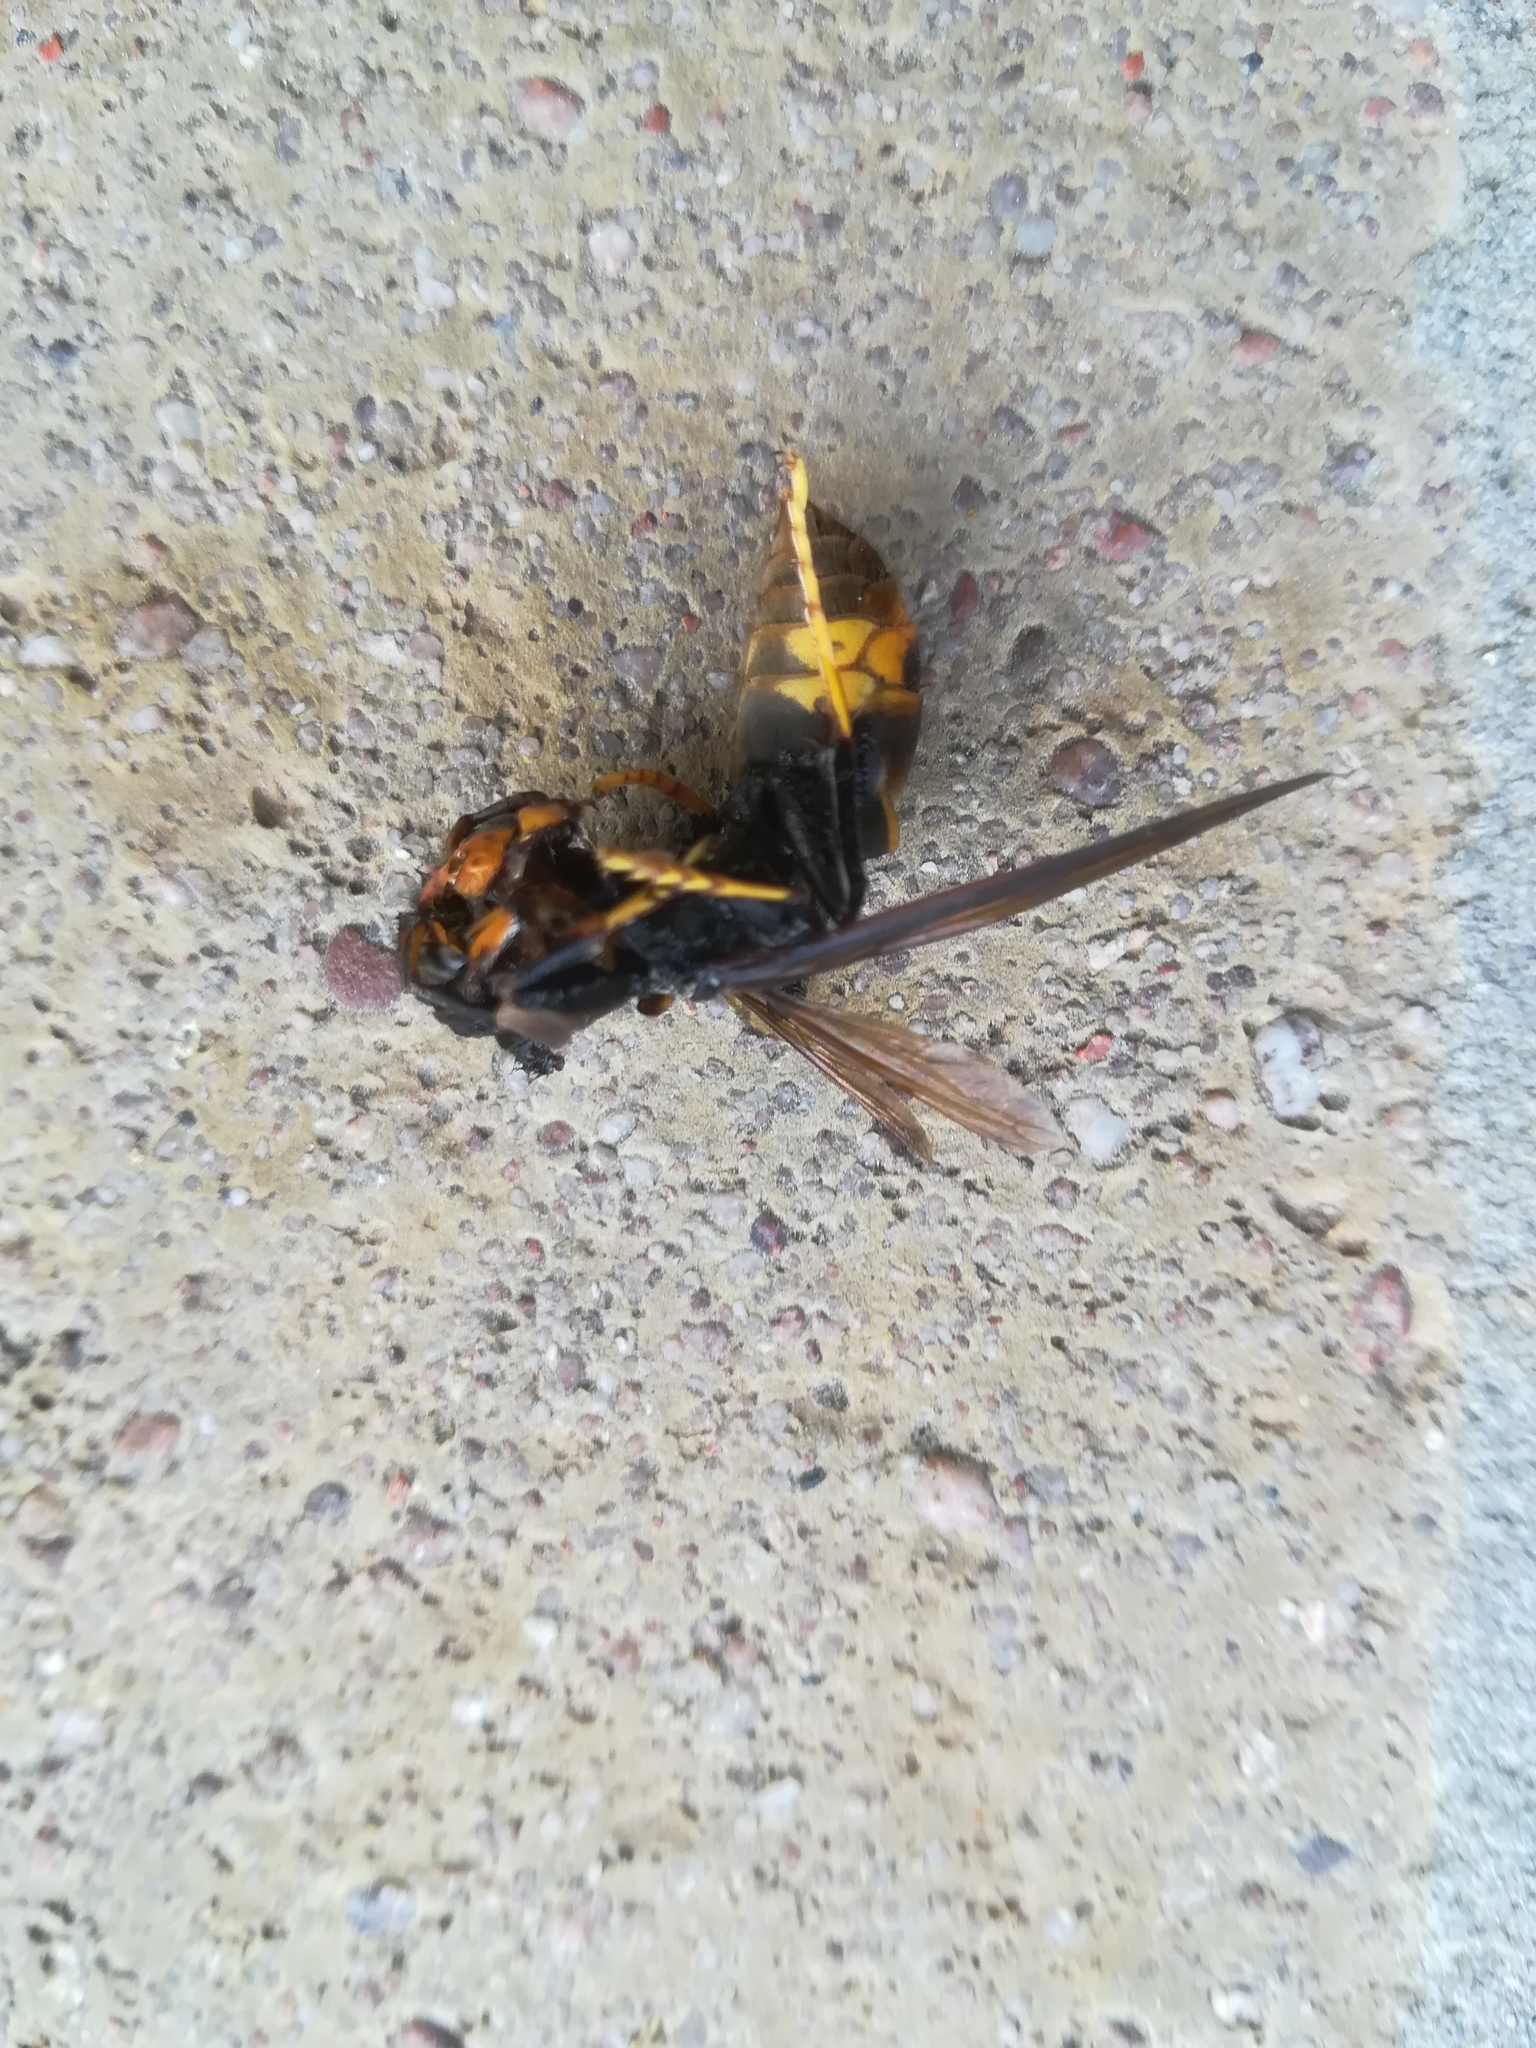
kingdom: Animalia
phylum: Arthropoda
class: Insecta
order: Hymenoptera
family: Vespidae
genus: Vespa
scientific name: Vespa velutina
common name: Asian hornet
